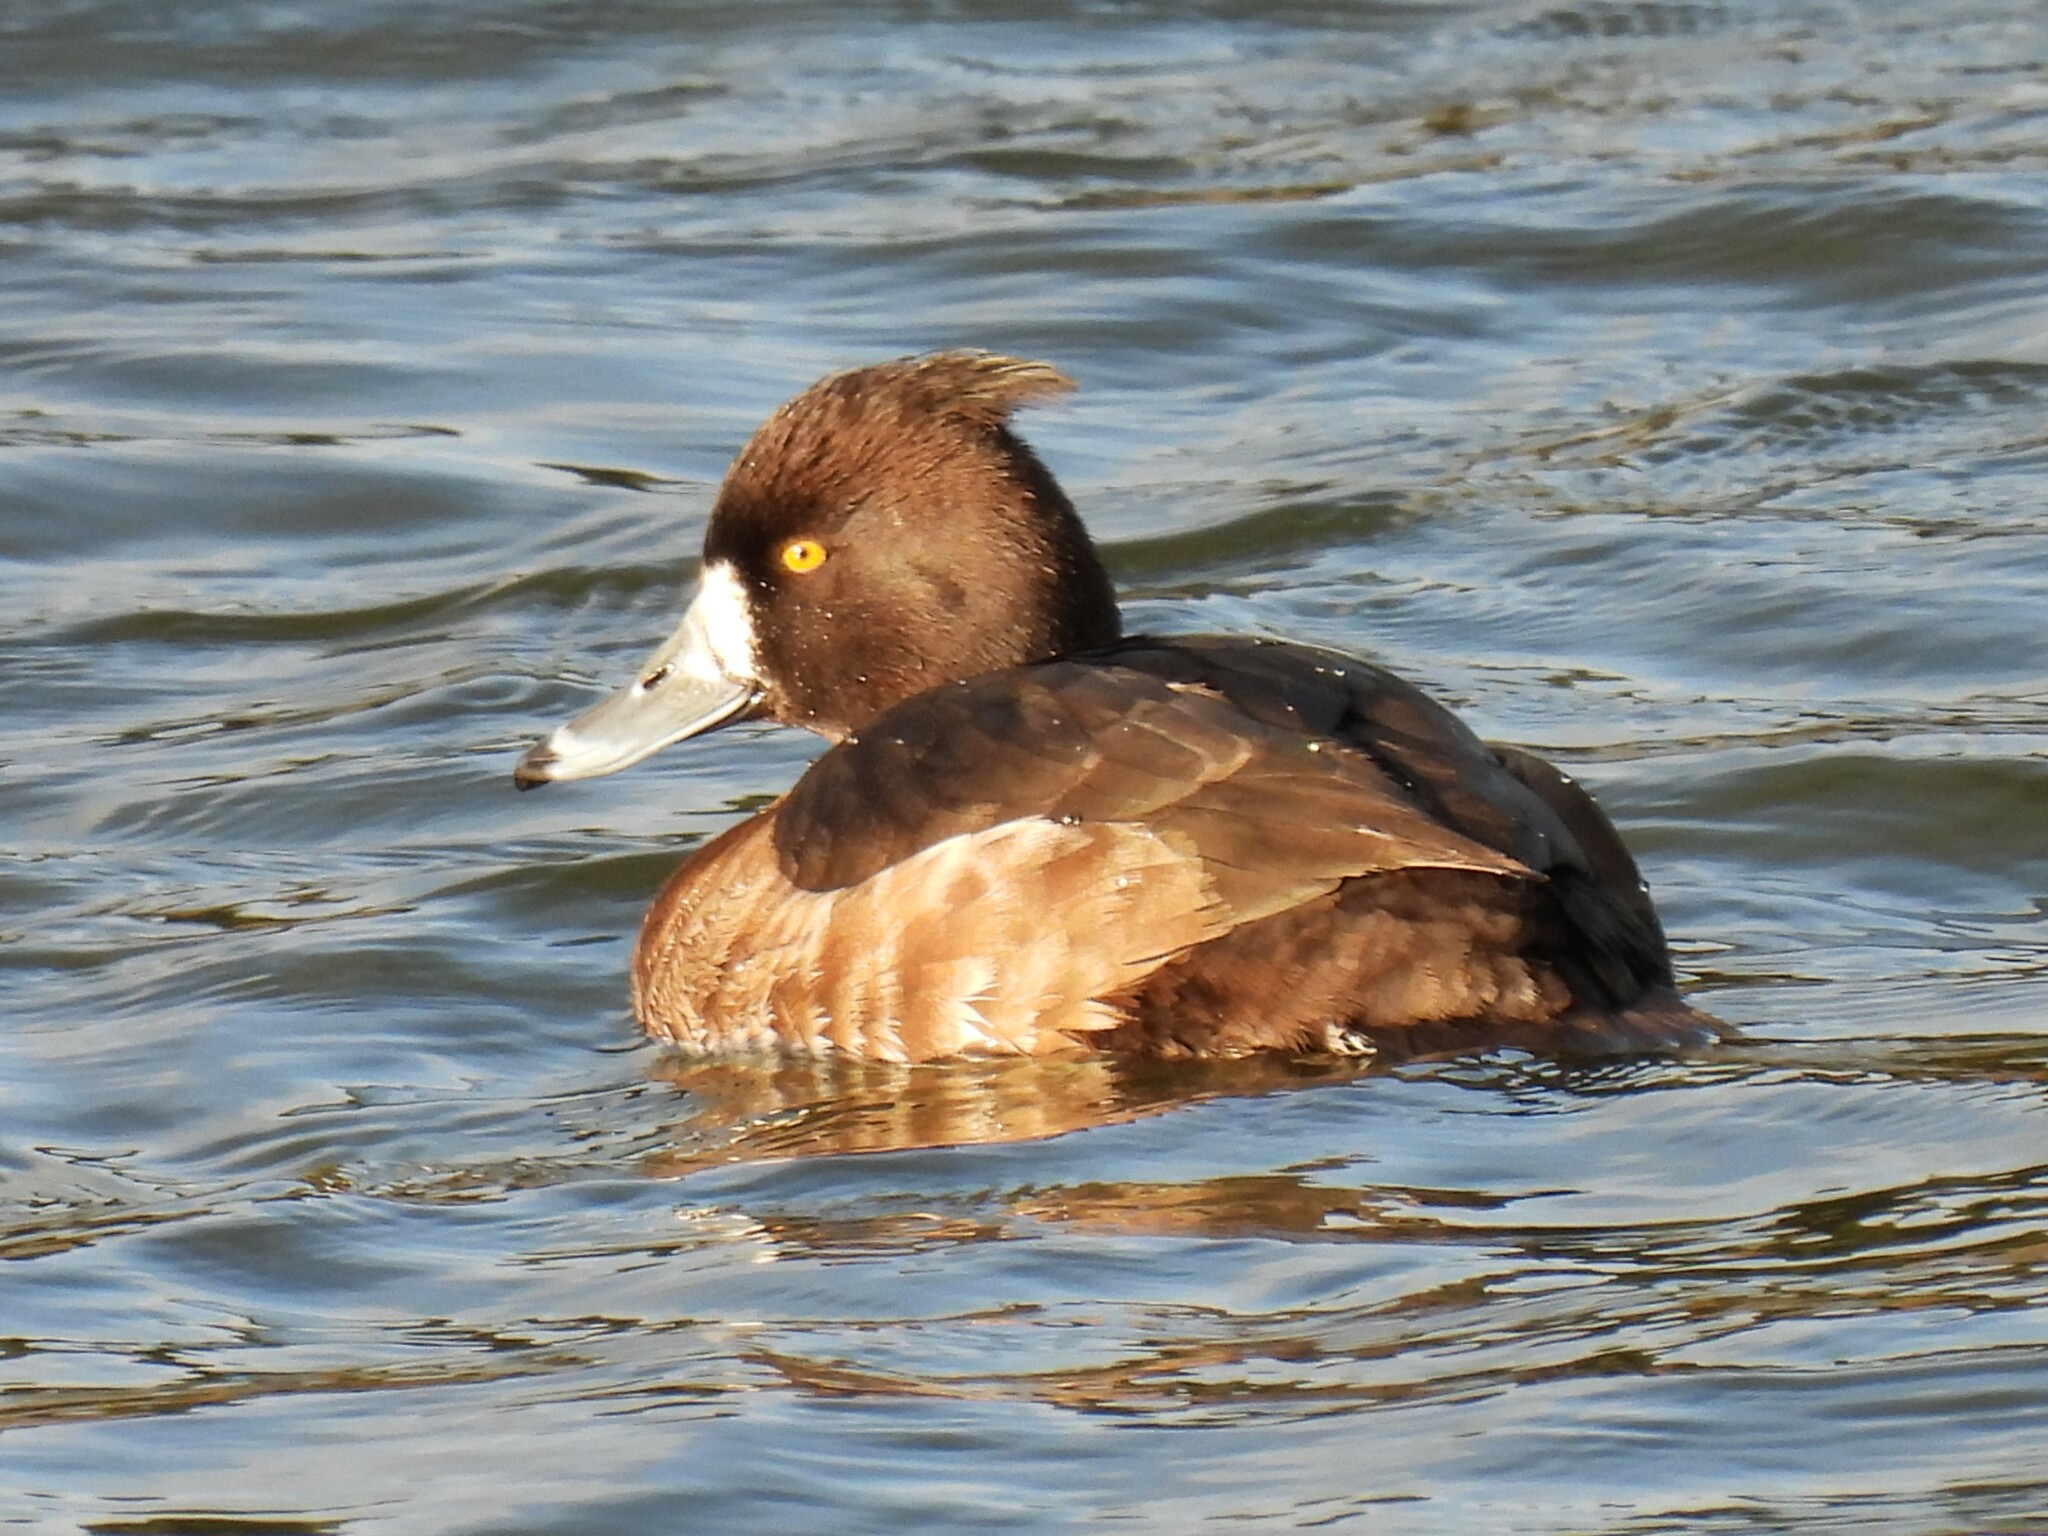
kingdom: Animalia
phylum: Chordata
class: Aves
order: Anseriformes
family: Anatidae
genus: Aythya
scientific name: Aythya fuligula
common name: Tufted duck
